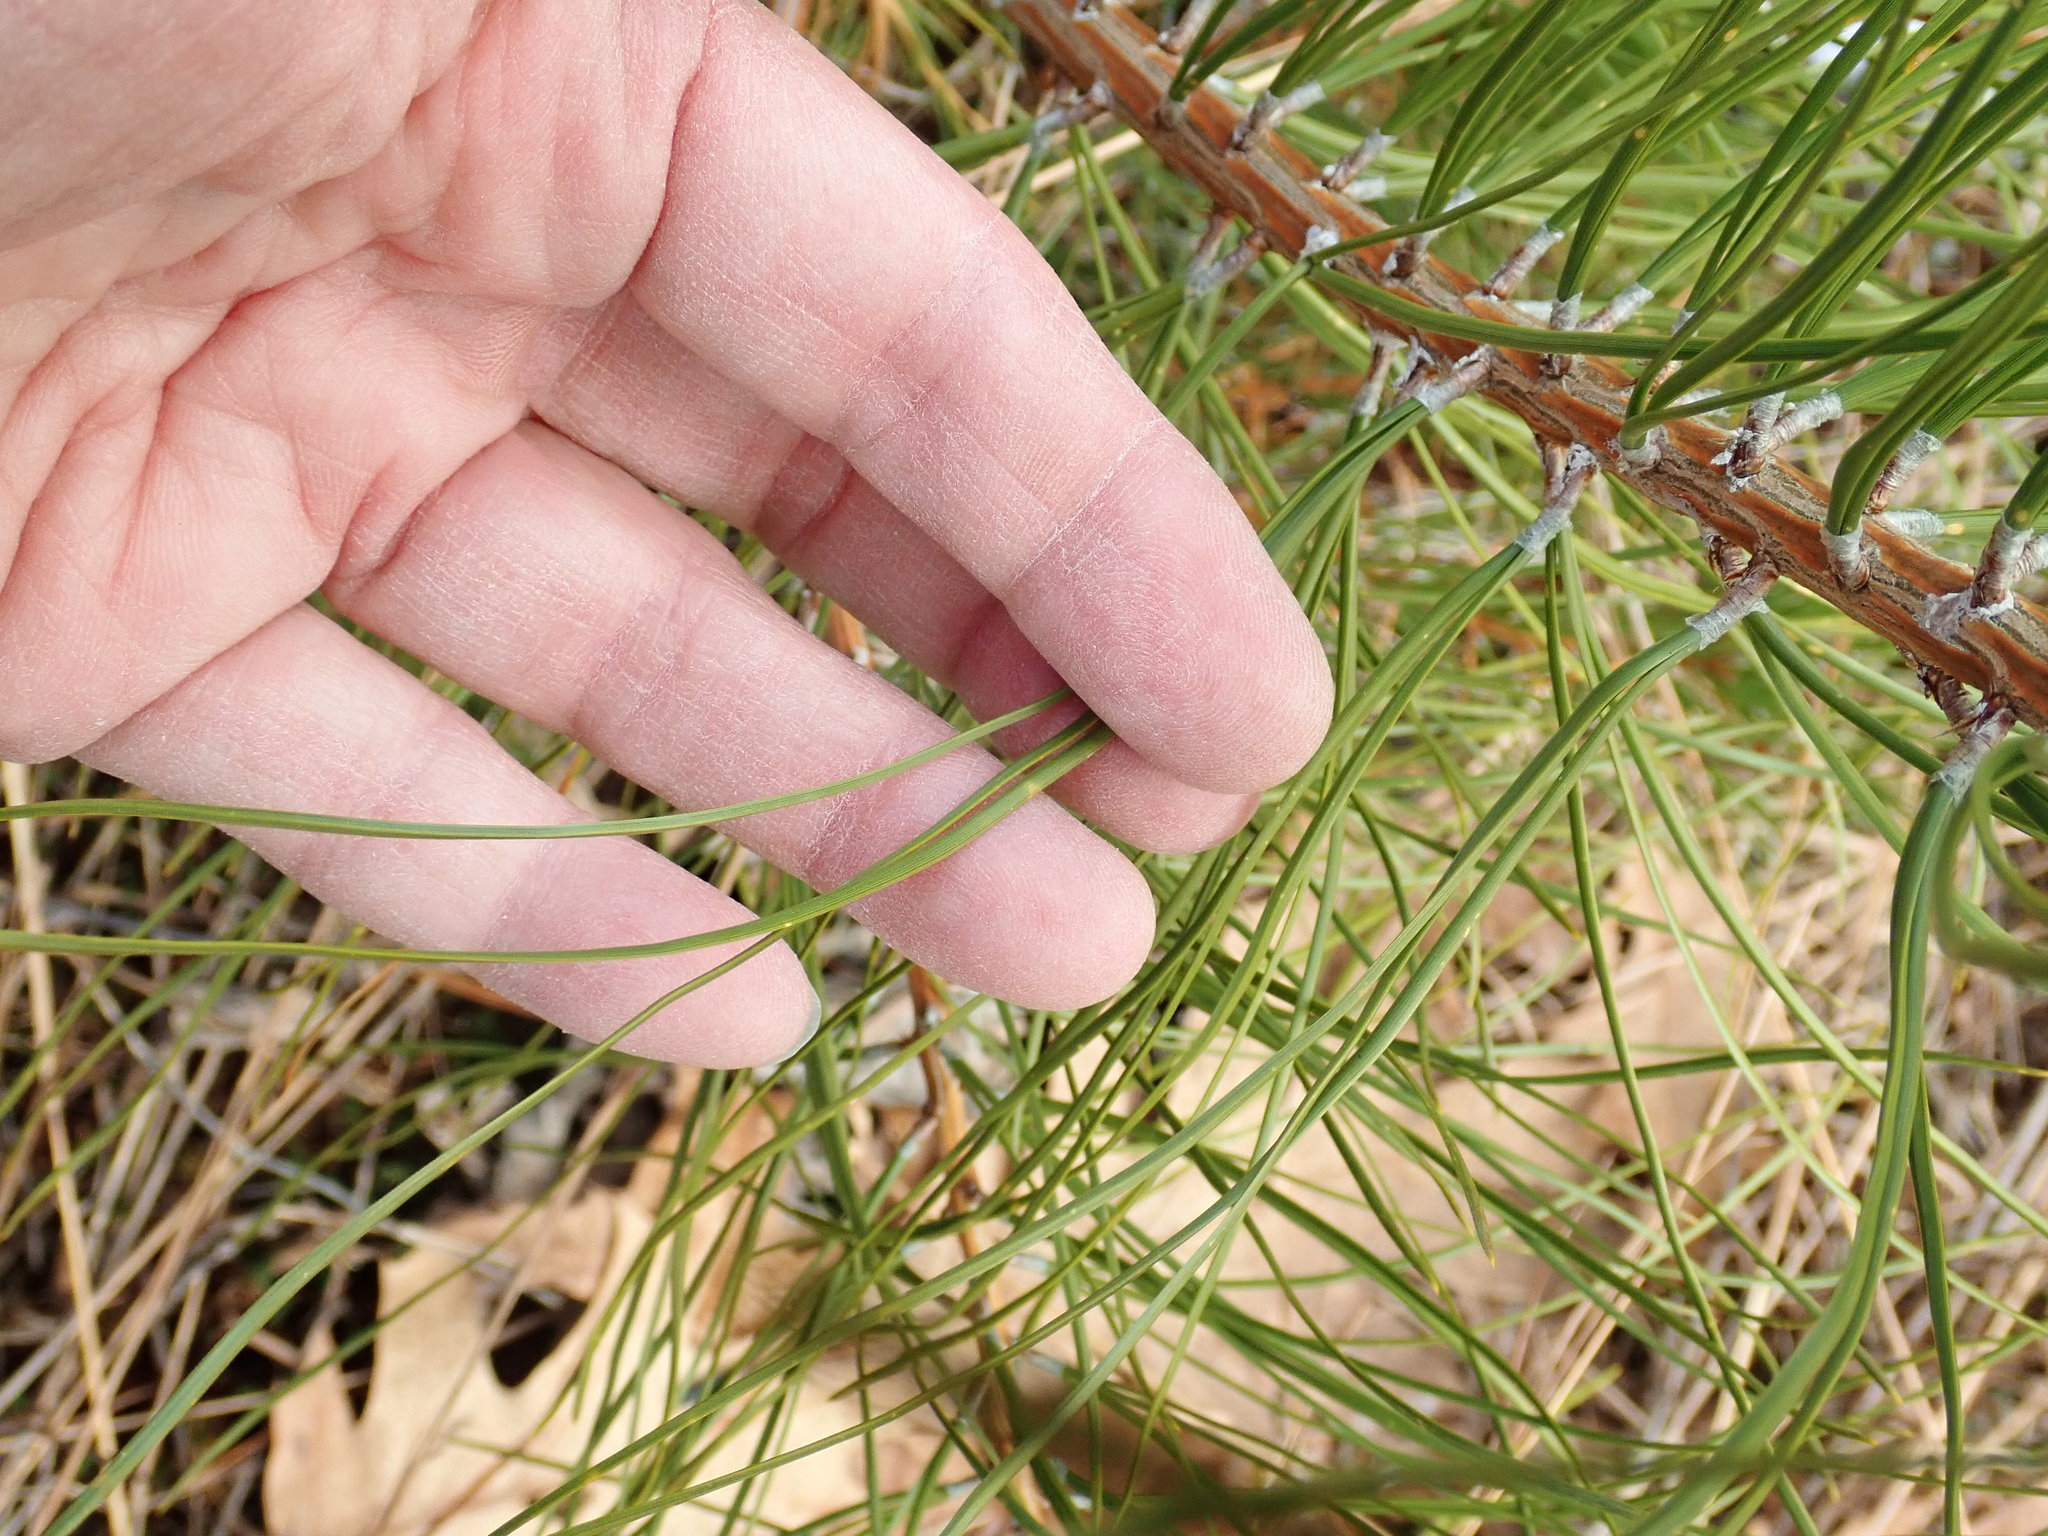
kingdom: Plantae
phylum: Tracheophyta
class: Pinopsida
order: Pinales
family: Pinaceae
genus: Pinus
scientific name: Pinus rigida
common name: Pitch pine
